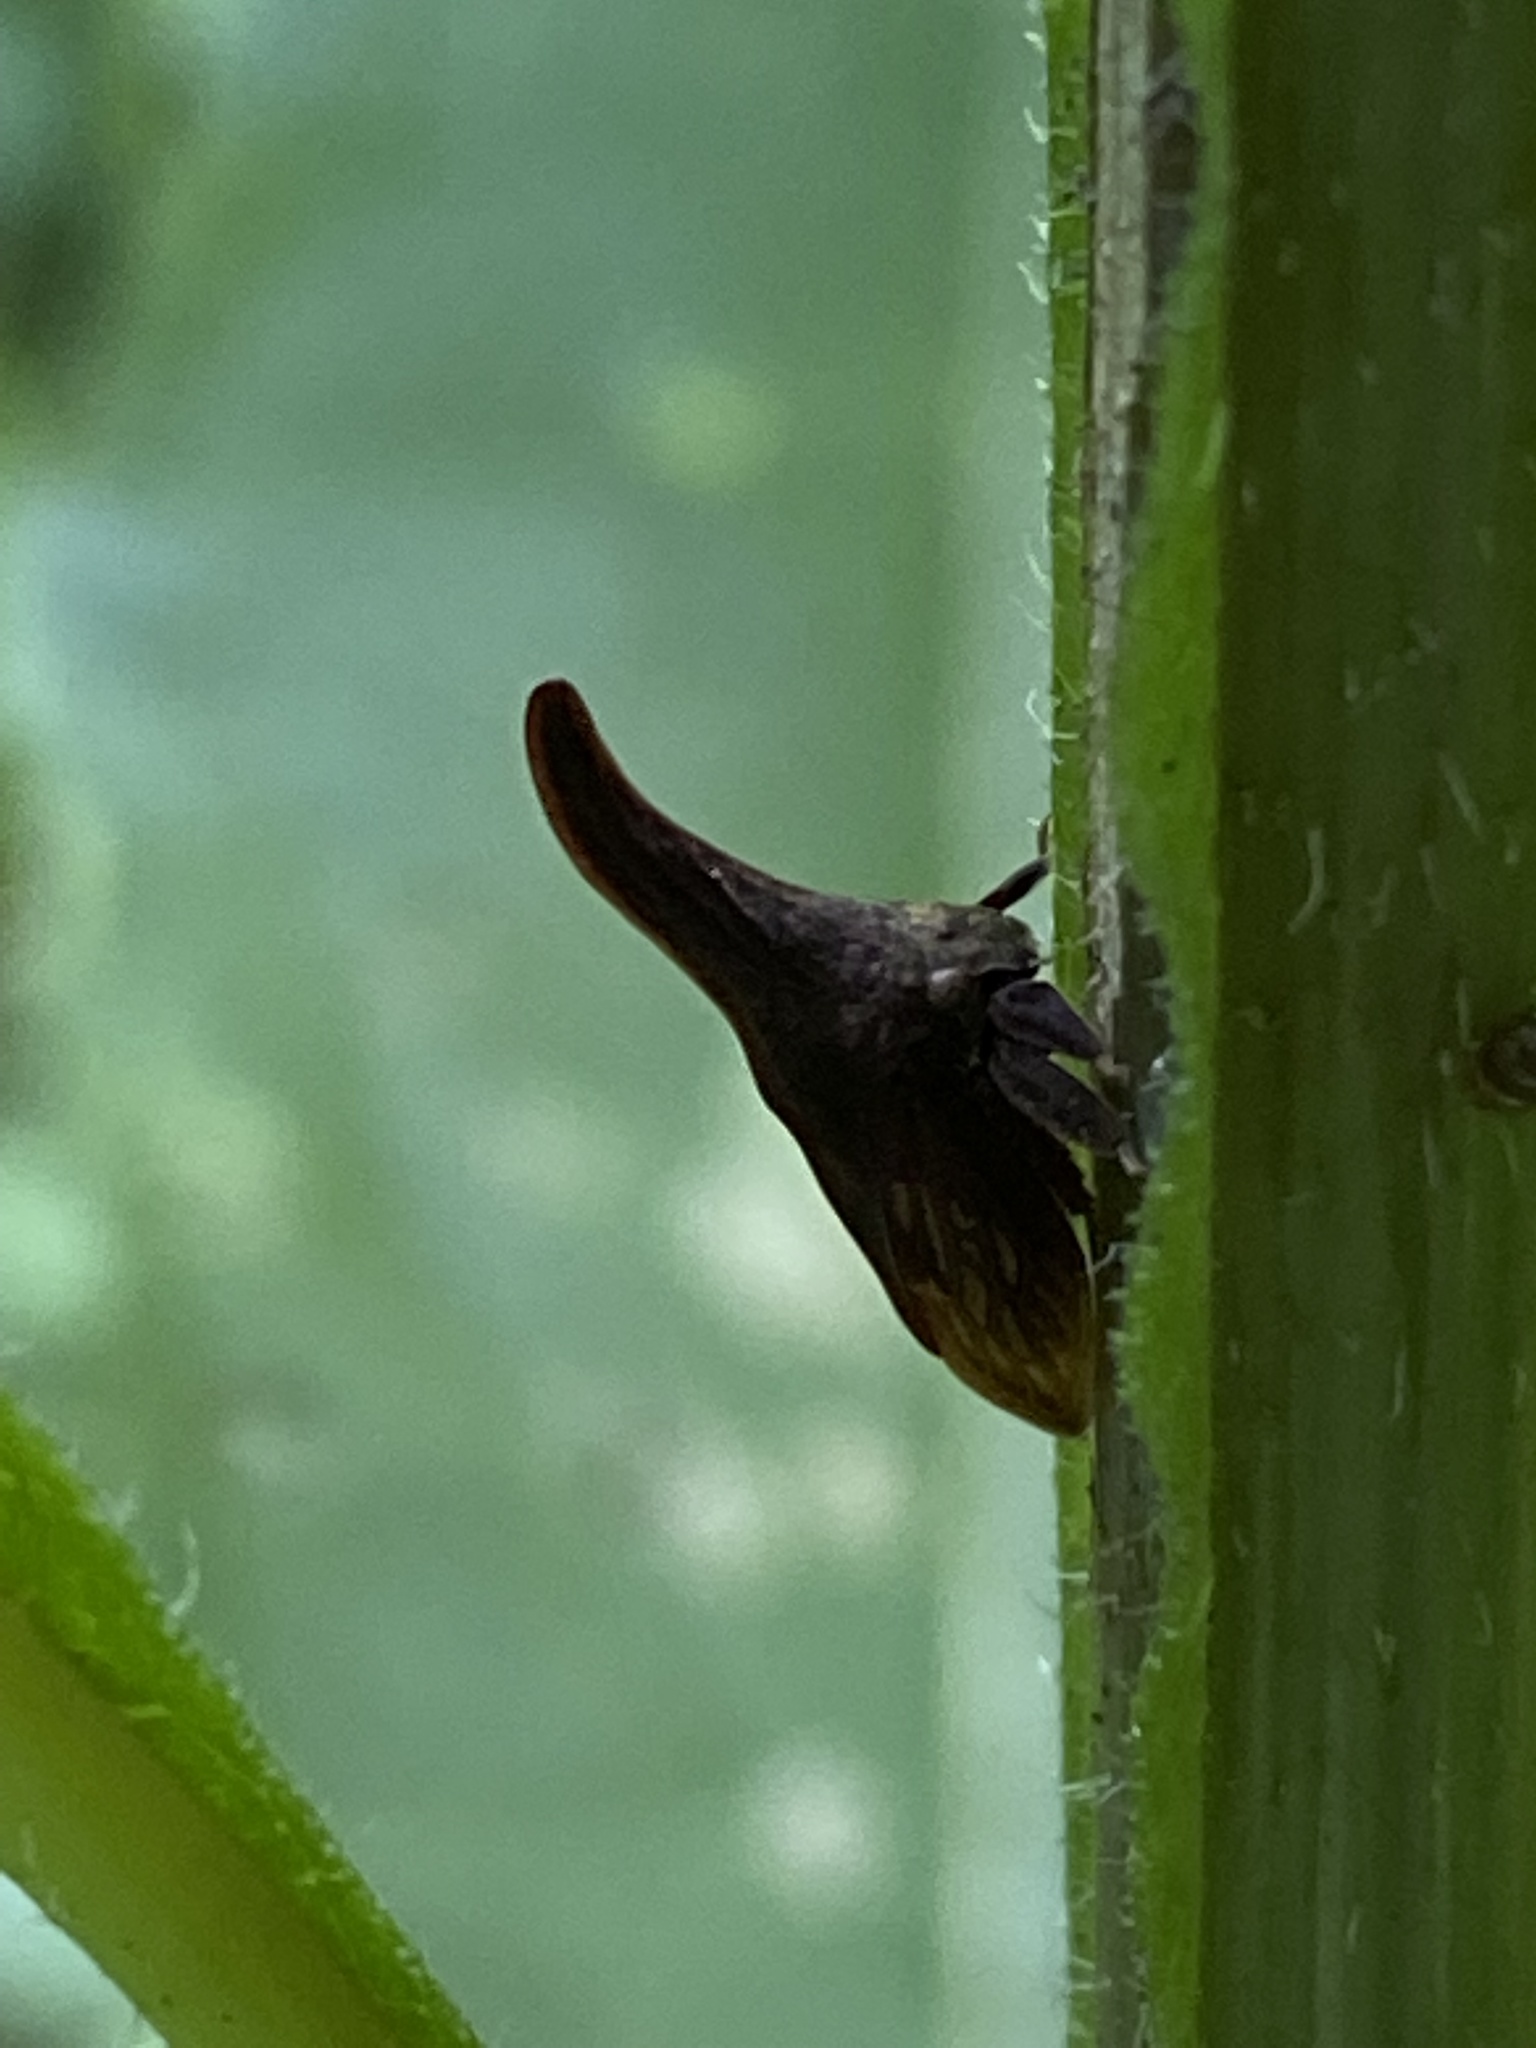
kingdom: Animalia
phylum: Arthropoda
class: Insecta
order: Hemiptera
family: Membracidae
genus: Enchenopa
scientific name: Enchenopa latipes
